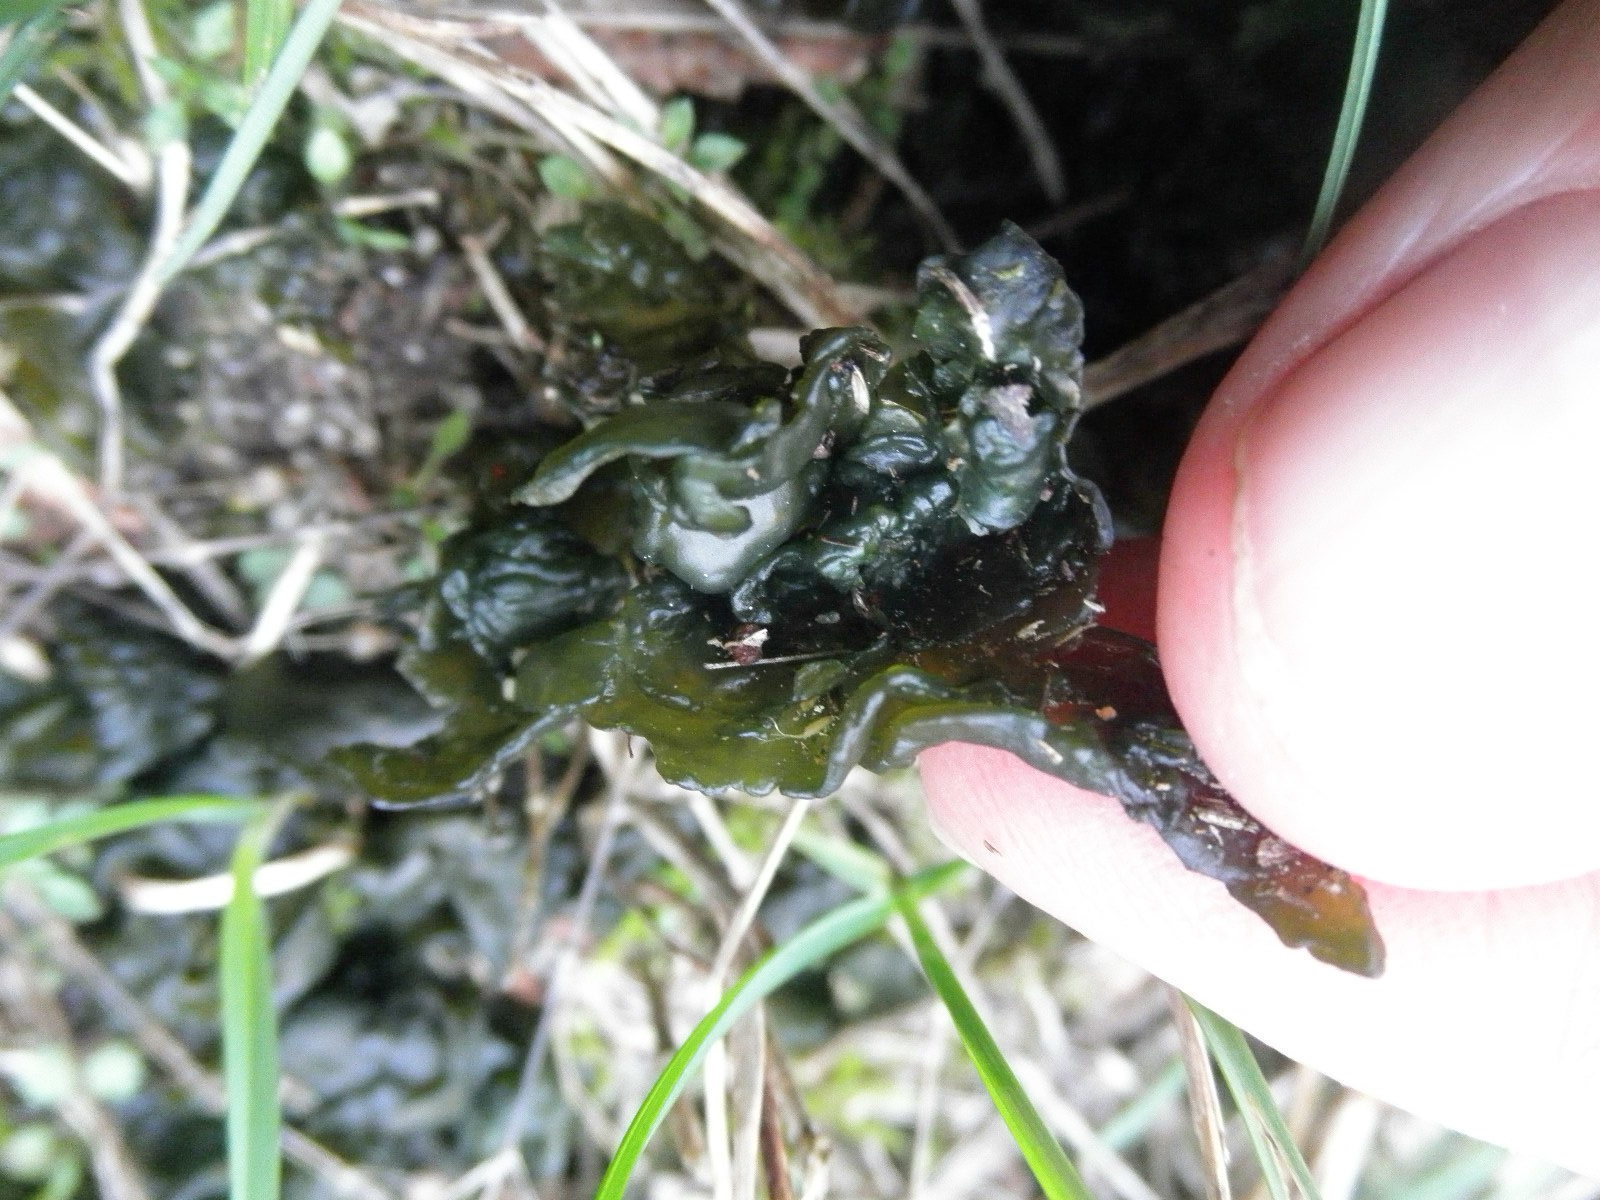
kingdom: Bacteria
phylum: Cyanobacteria
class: Cyanobacteriia
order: Cyanobacteriales
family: Nostocaceae
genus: Nostoc
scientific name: Nostoc commune
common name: Star jelly
